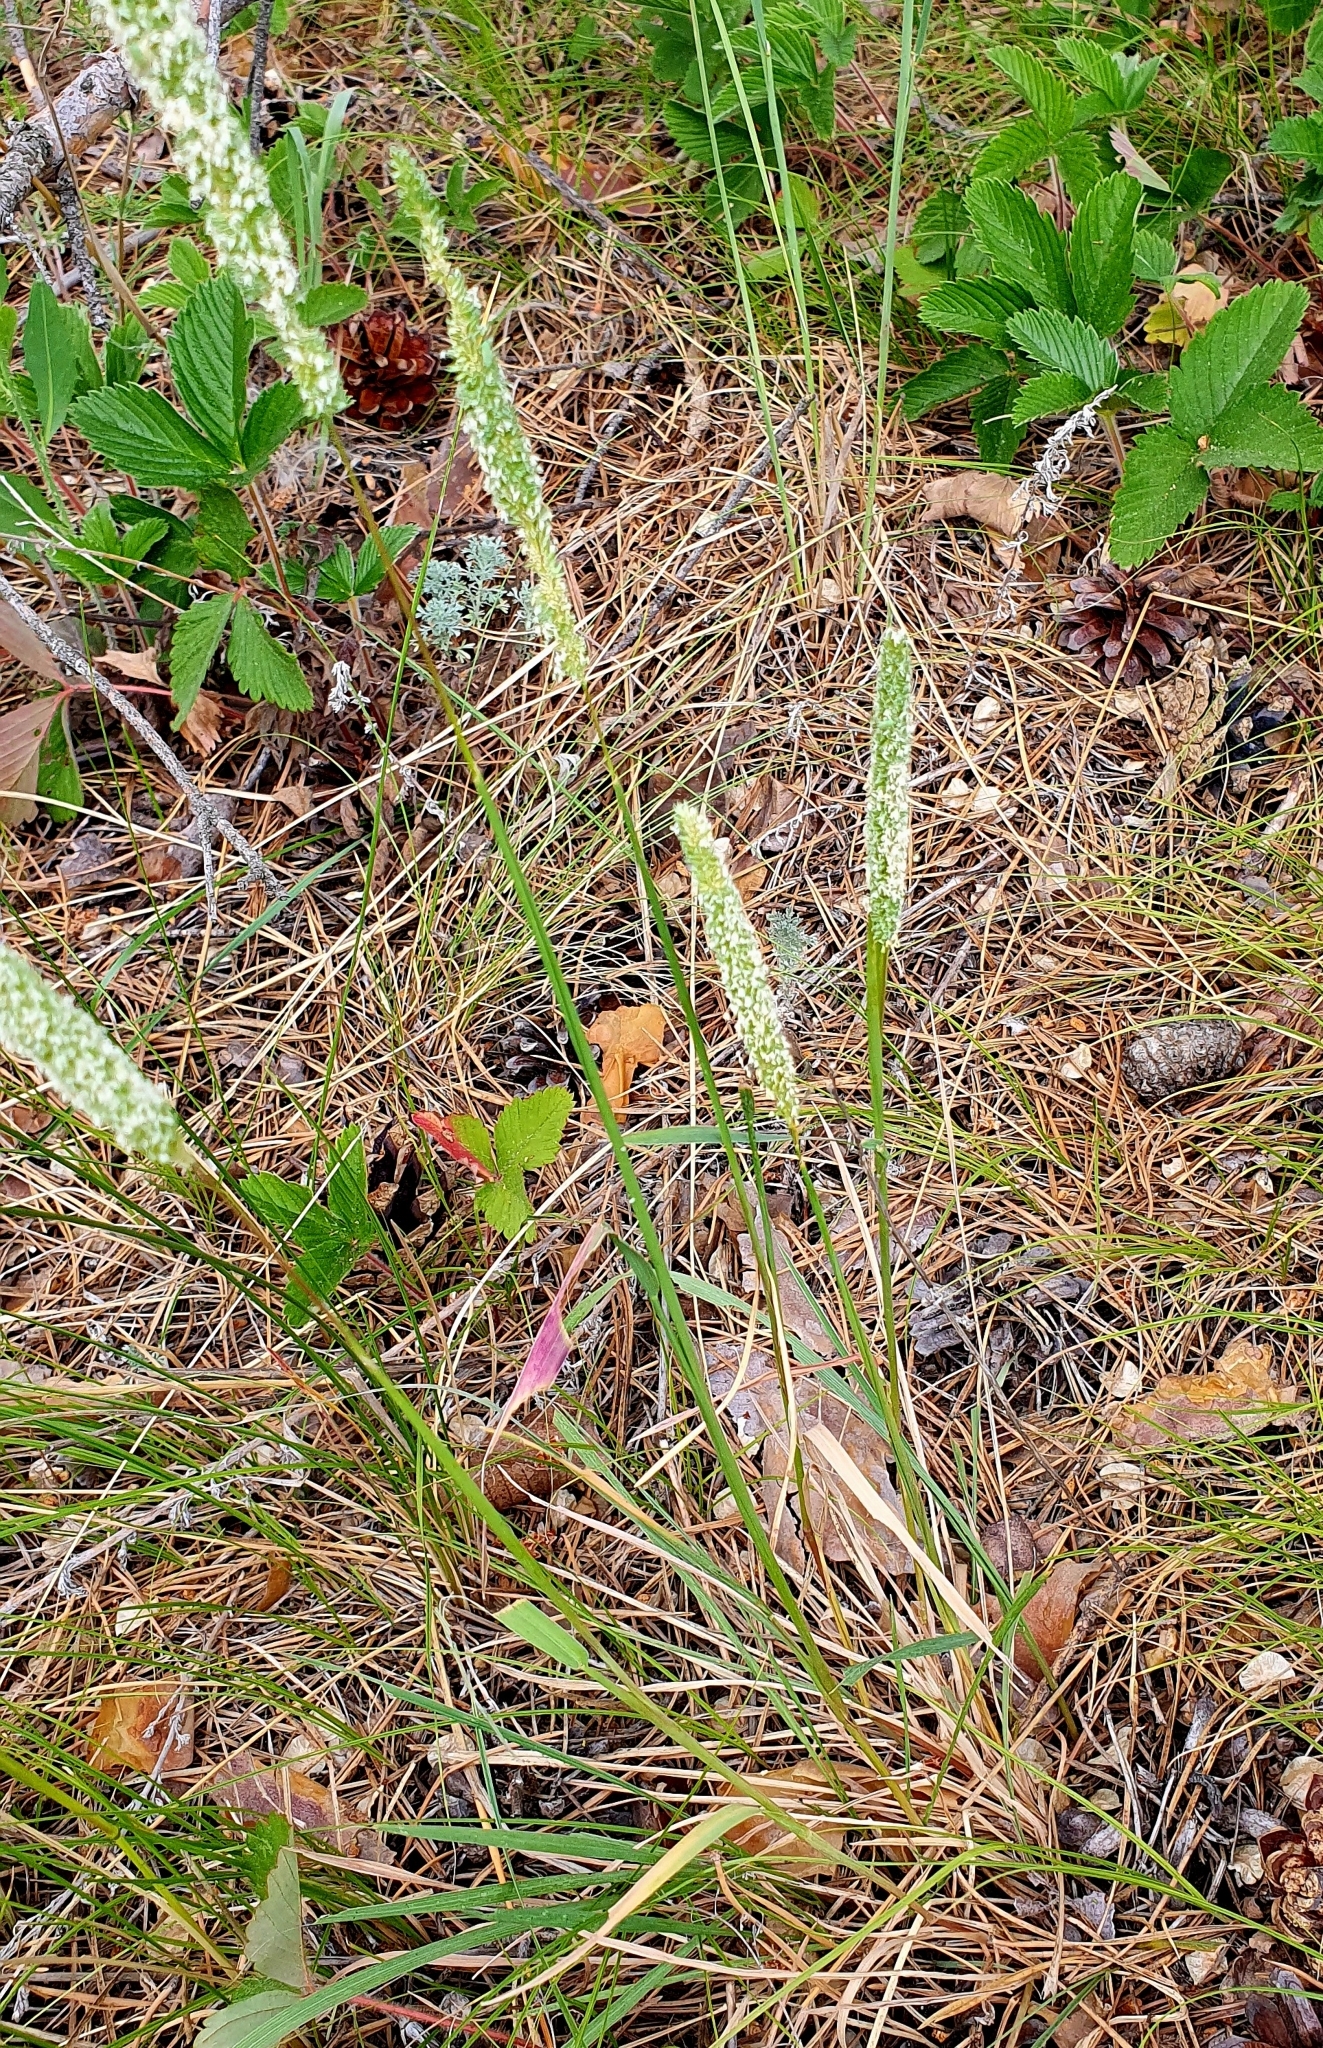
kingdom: Plantae
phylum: Tracheophyta
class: Liliopsida
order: Poales
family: Poaceae
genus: Phleum
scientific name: Phleum phleoides
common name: Purple-stem cat's-tail
